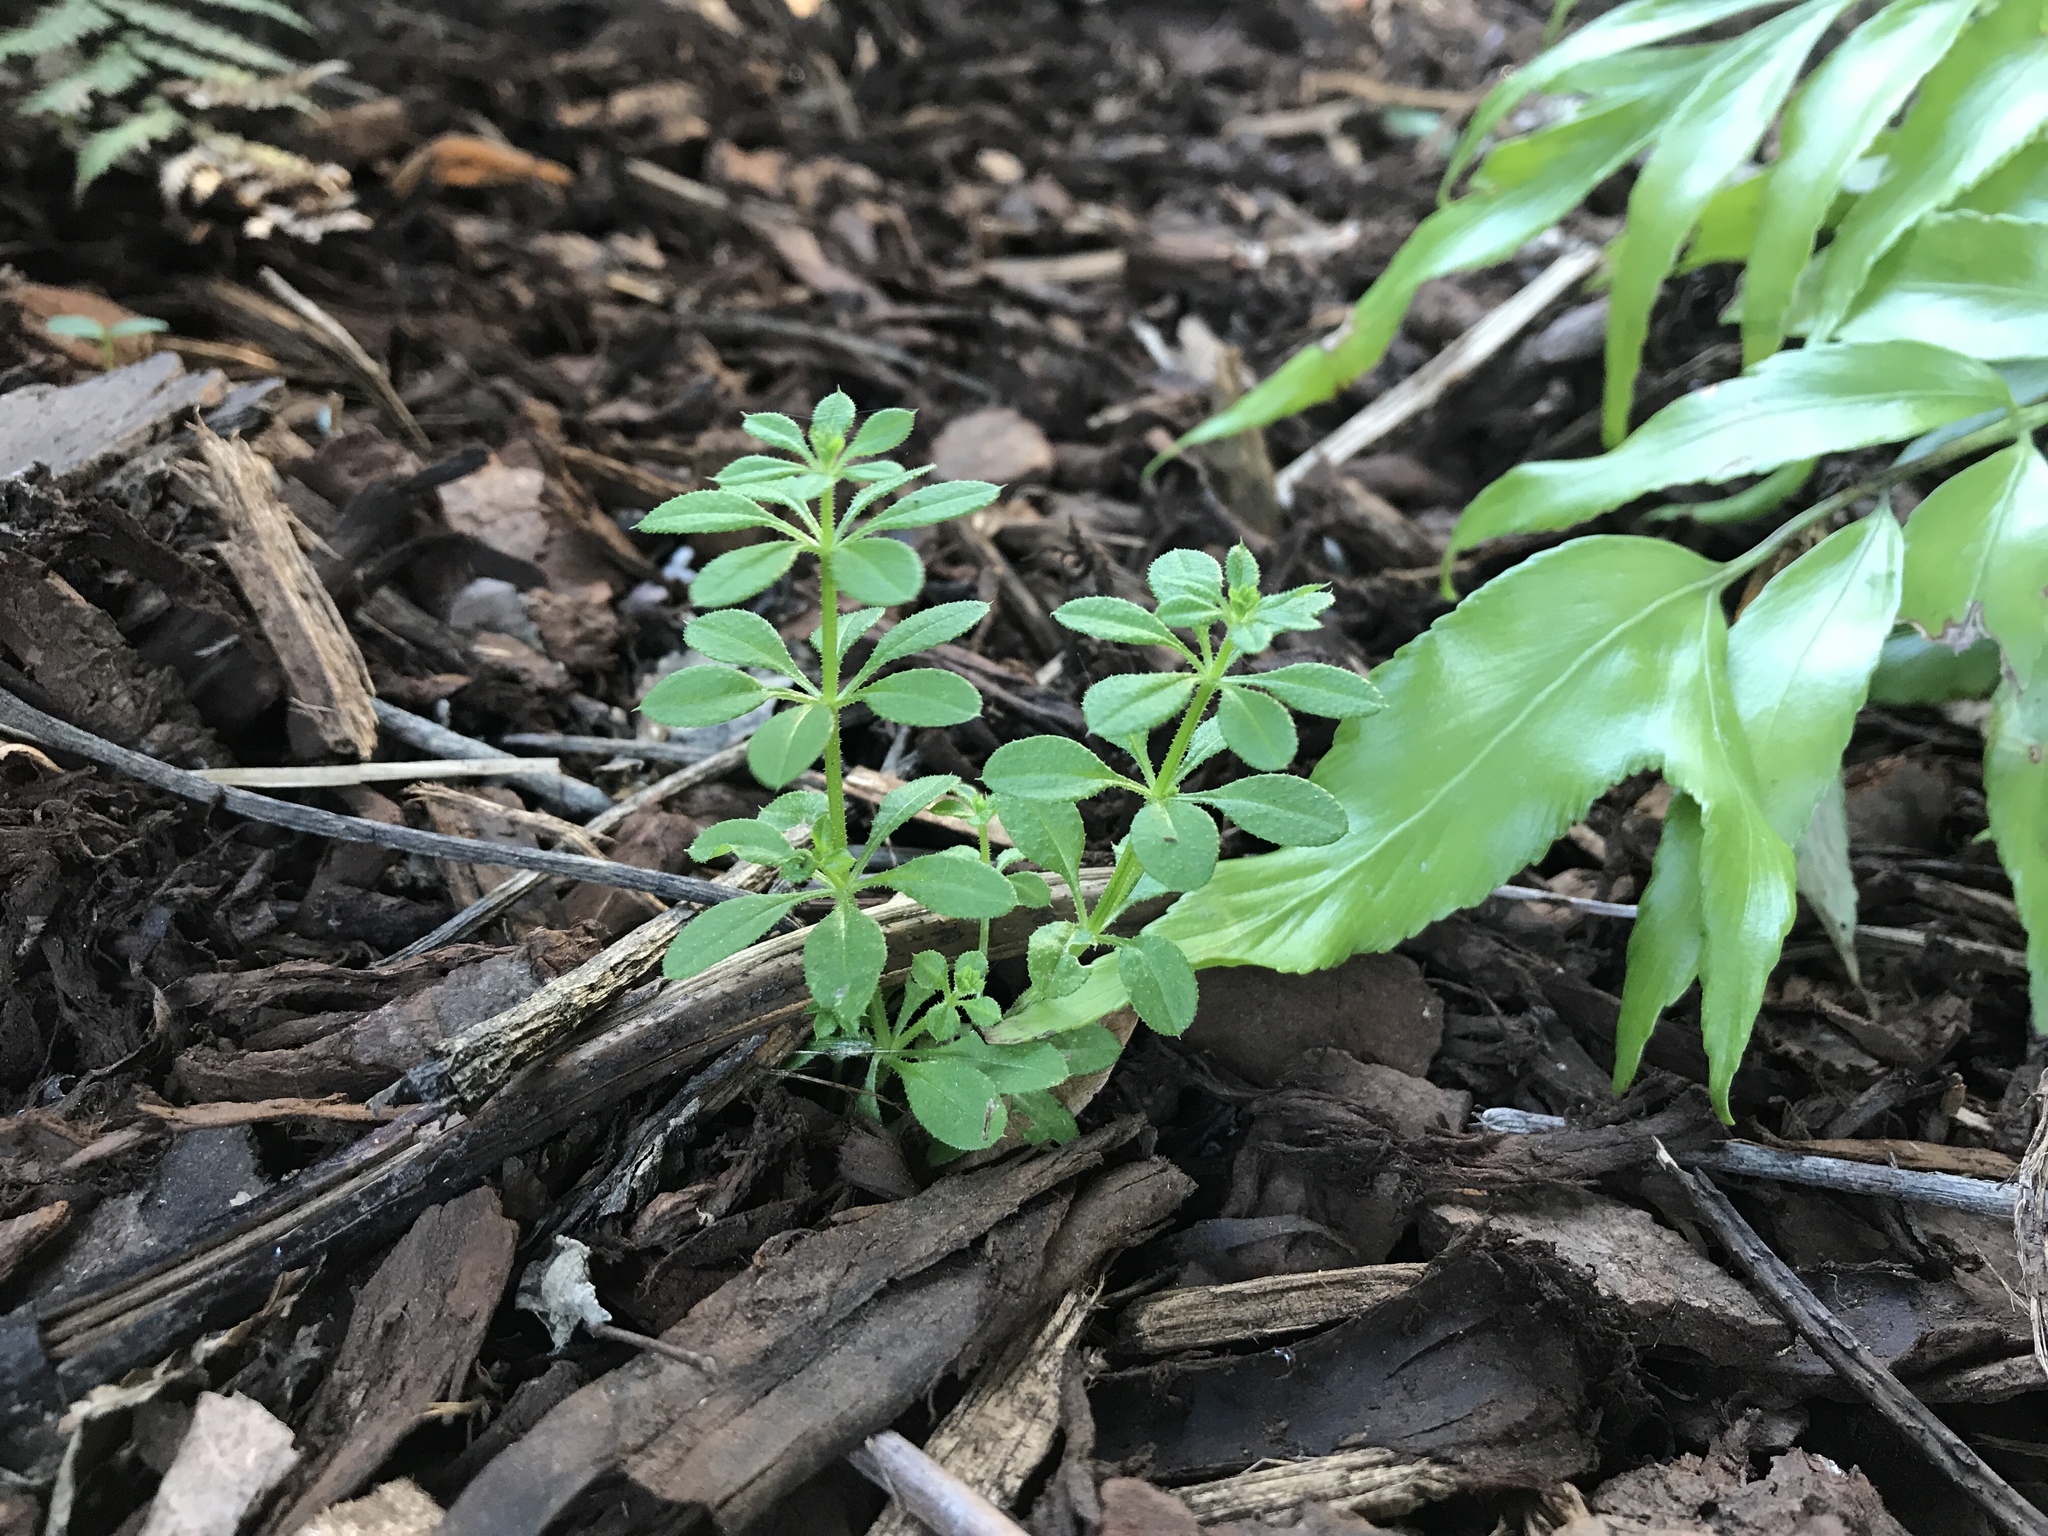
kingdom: Plantae
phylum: Tracheophyta
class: Magnoliopsida
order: Gentianales
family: Rubiaceae
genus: Galium
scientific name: Galium aparine
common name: Cleavers
